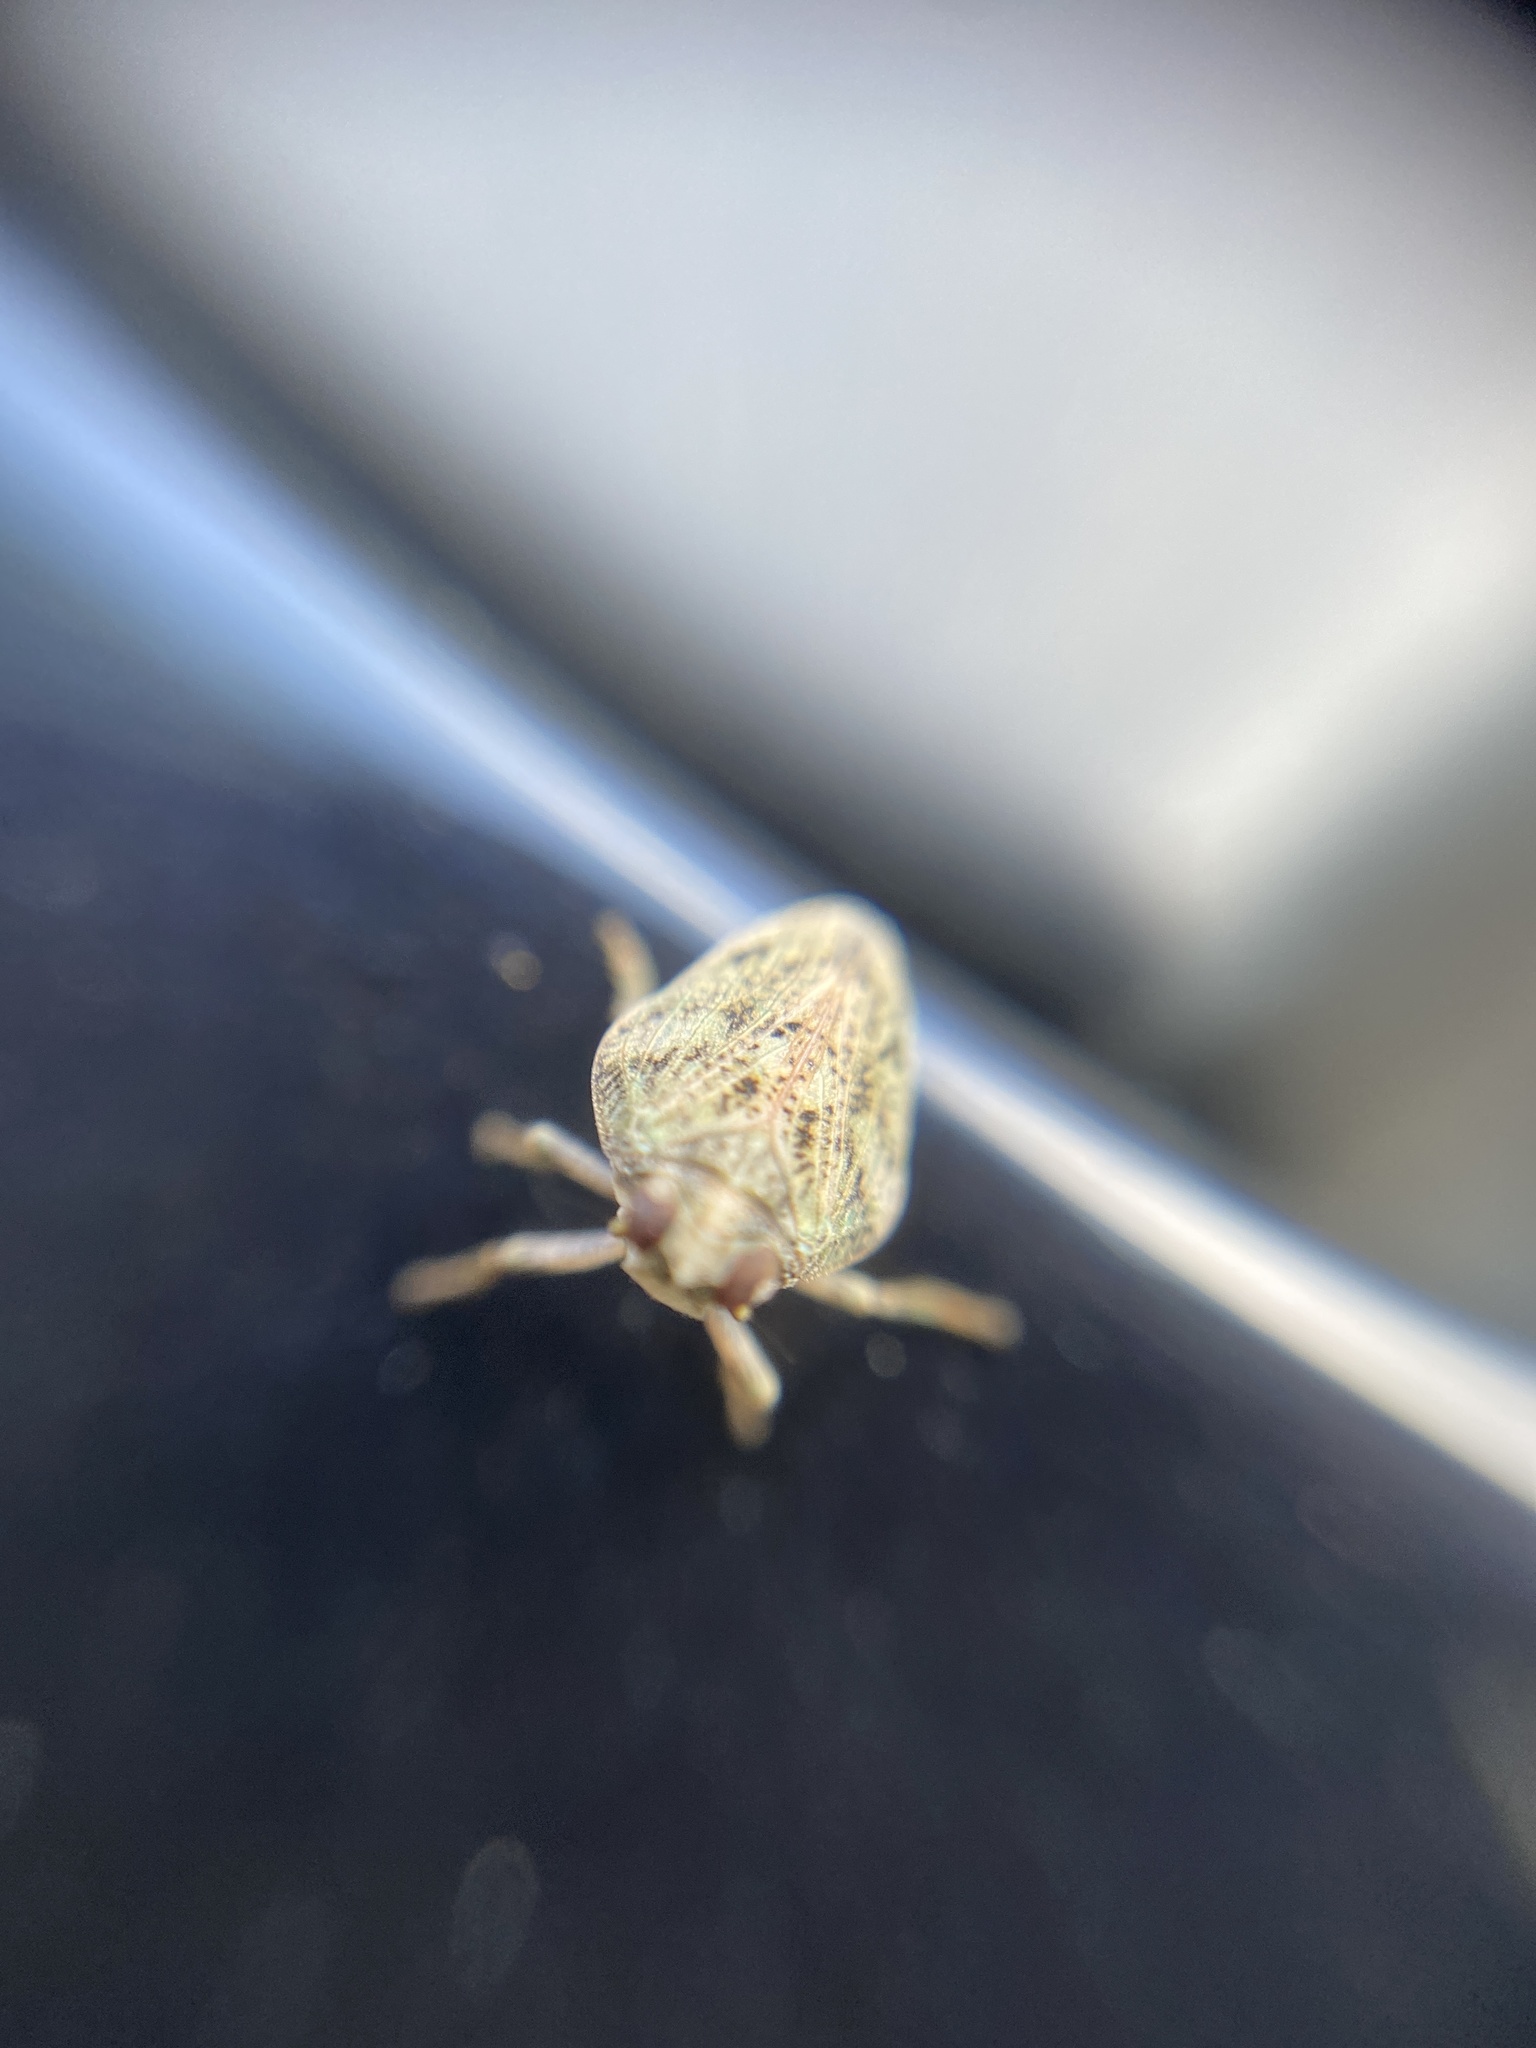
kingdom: Animalia
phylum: Arthropoda
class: Insecta
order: Hemiptera
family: Issidae
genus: Issus
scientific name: Issus coleoptratus
